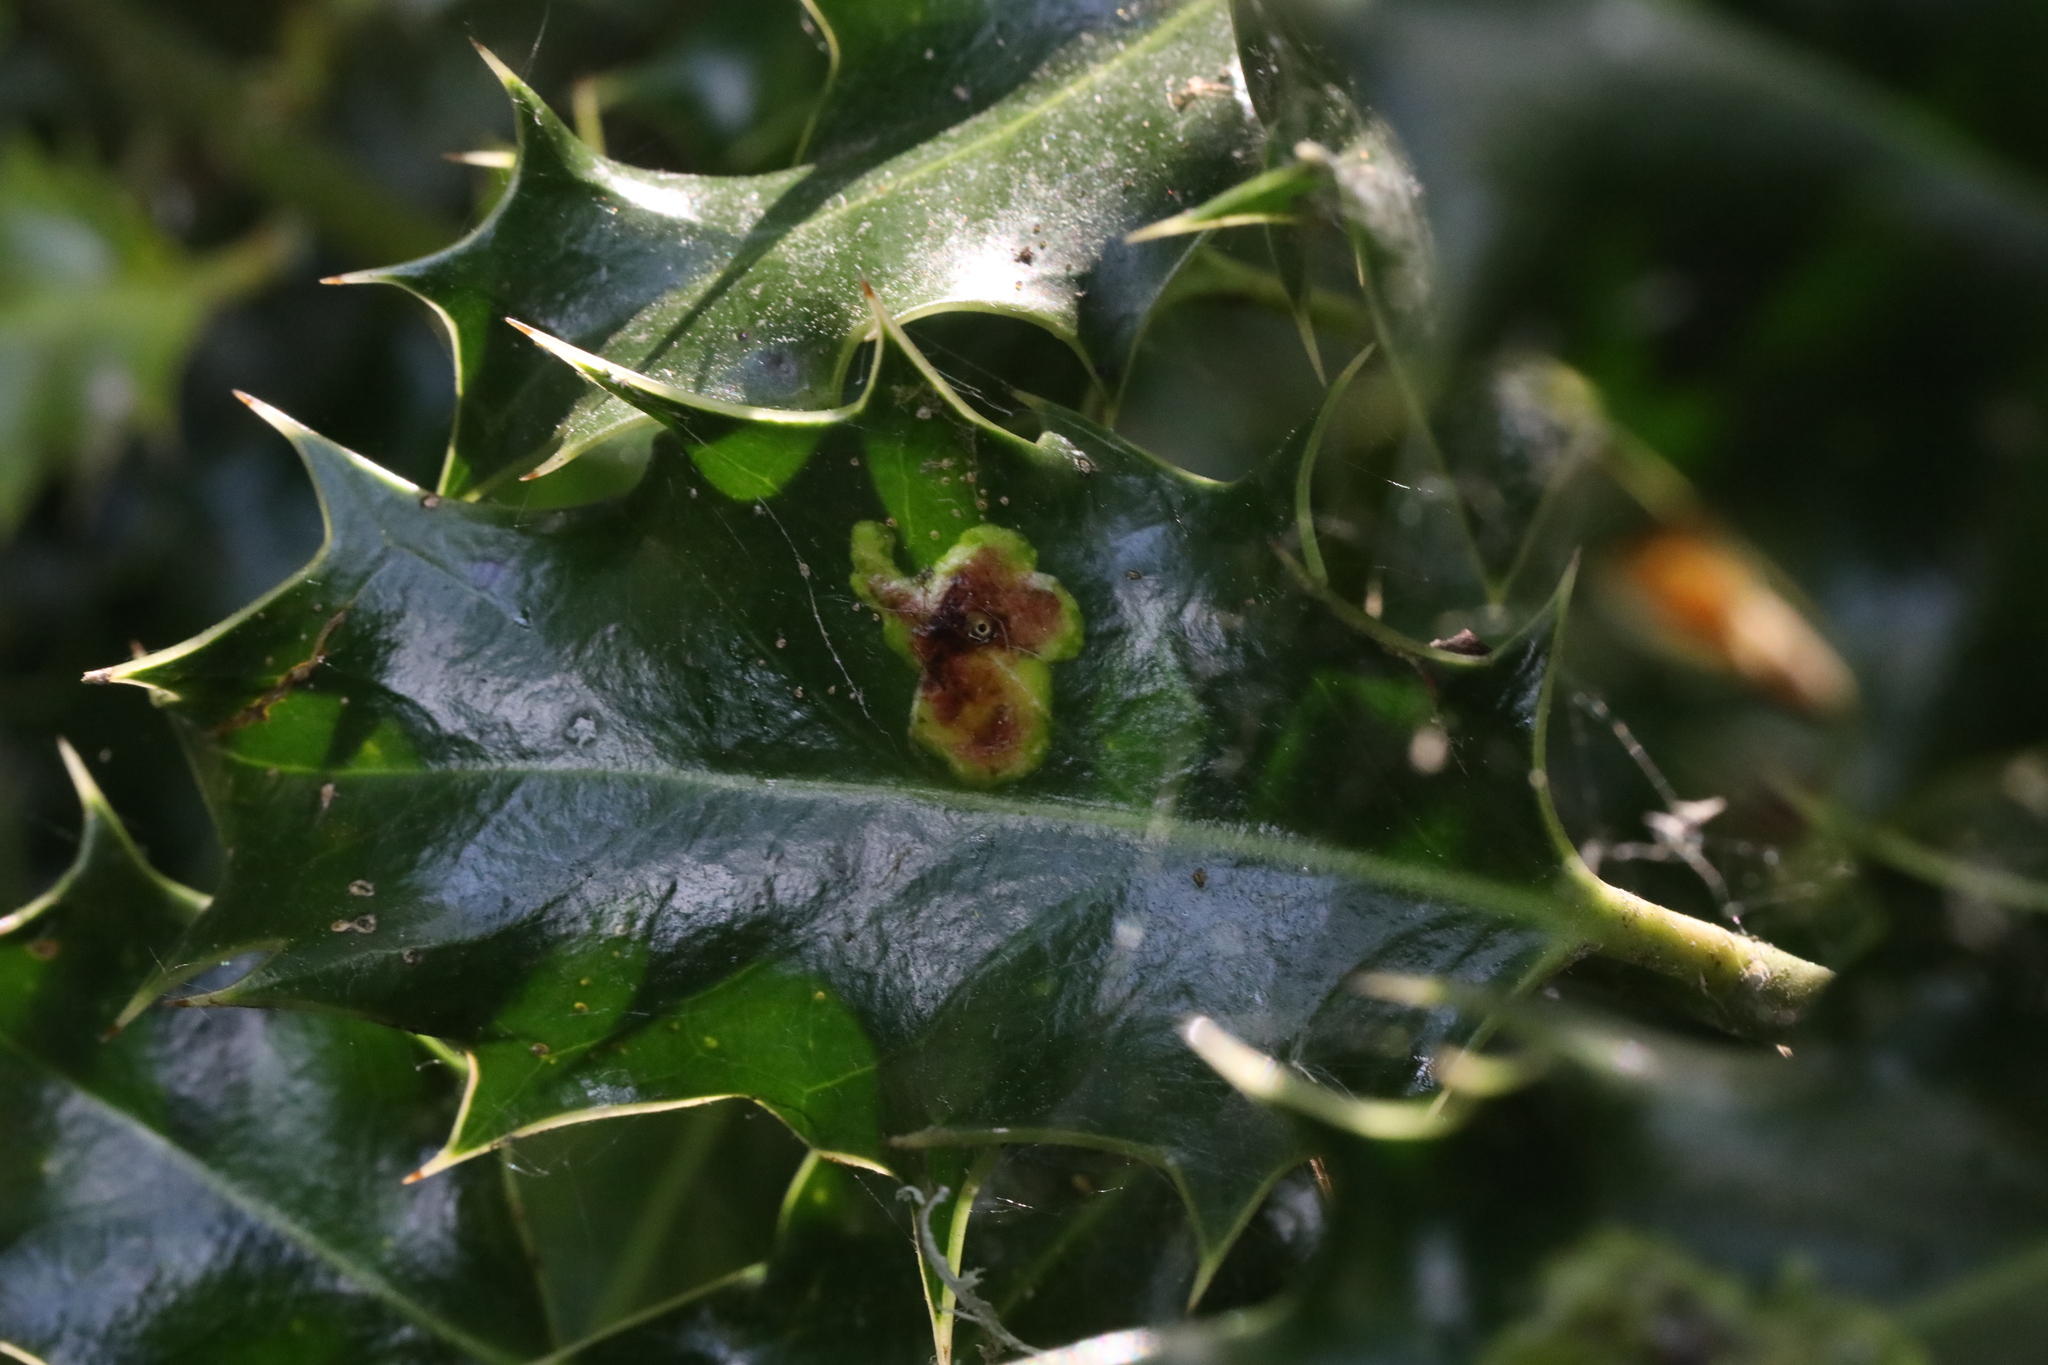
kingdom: Animalia
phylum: Arthropoda
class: Insecta
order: Diptera
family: Agromyzidae
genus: Phytomyza
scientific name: Phytomyza ilicis
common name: Holly leafminer
